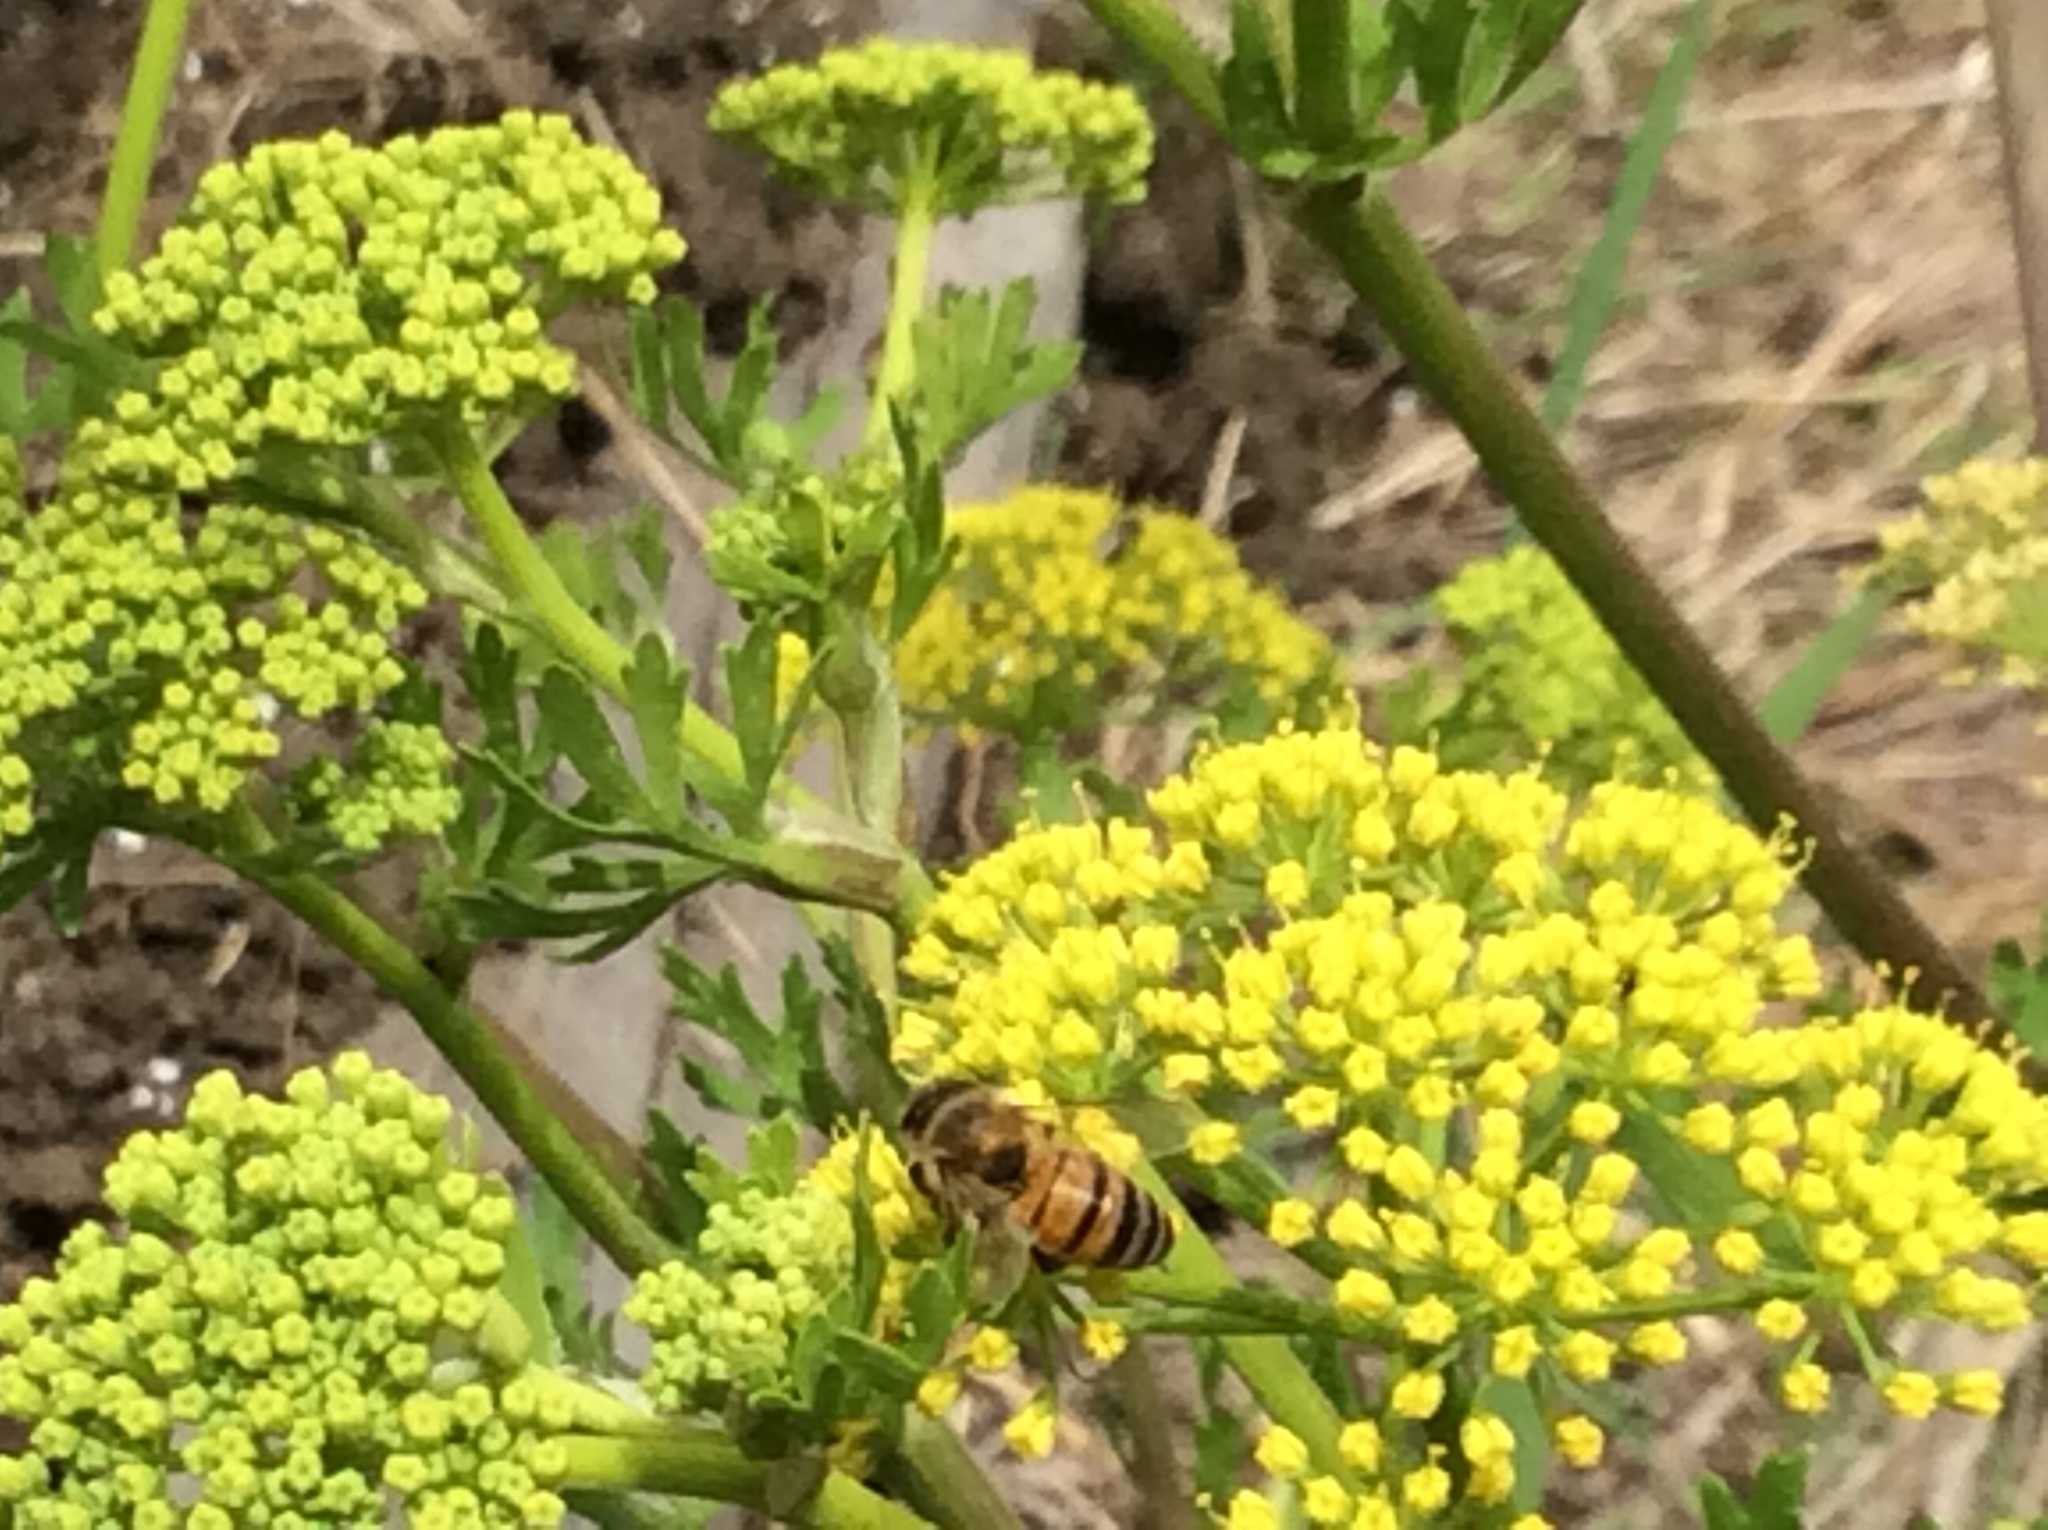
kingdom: Animalia
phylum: Arthropoda
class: Insecta
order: Hymenoptera
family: Apidae
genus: Apis
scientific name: Apis mellifera
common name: Honey bee
